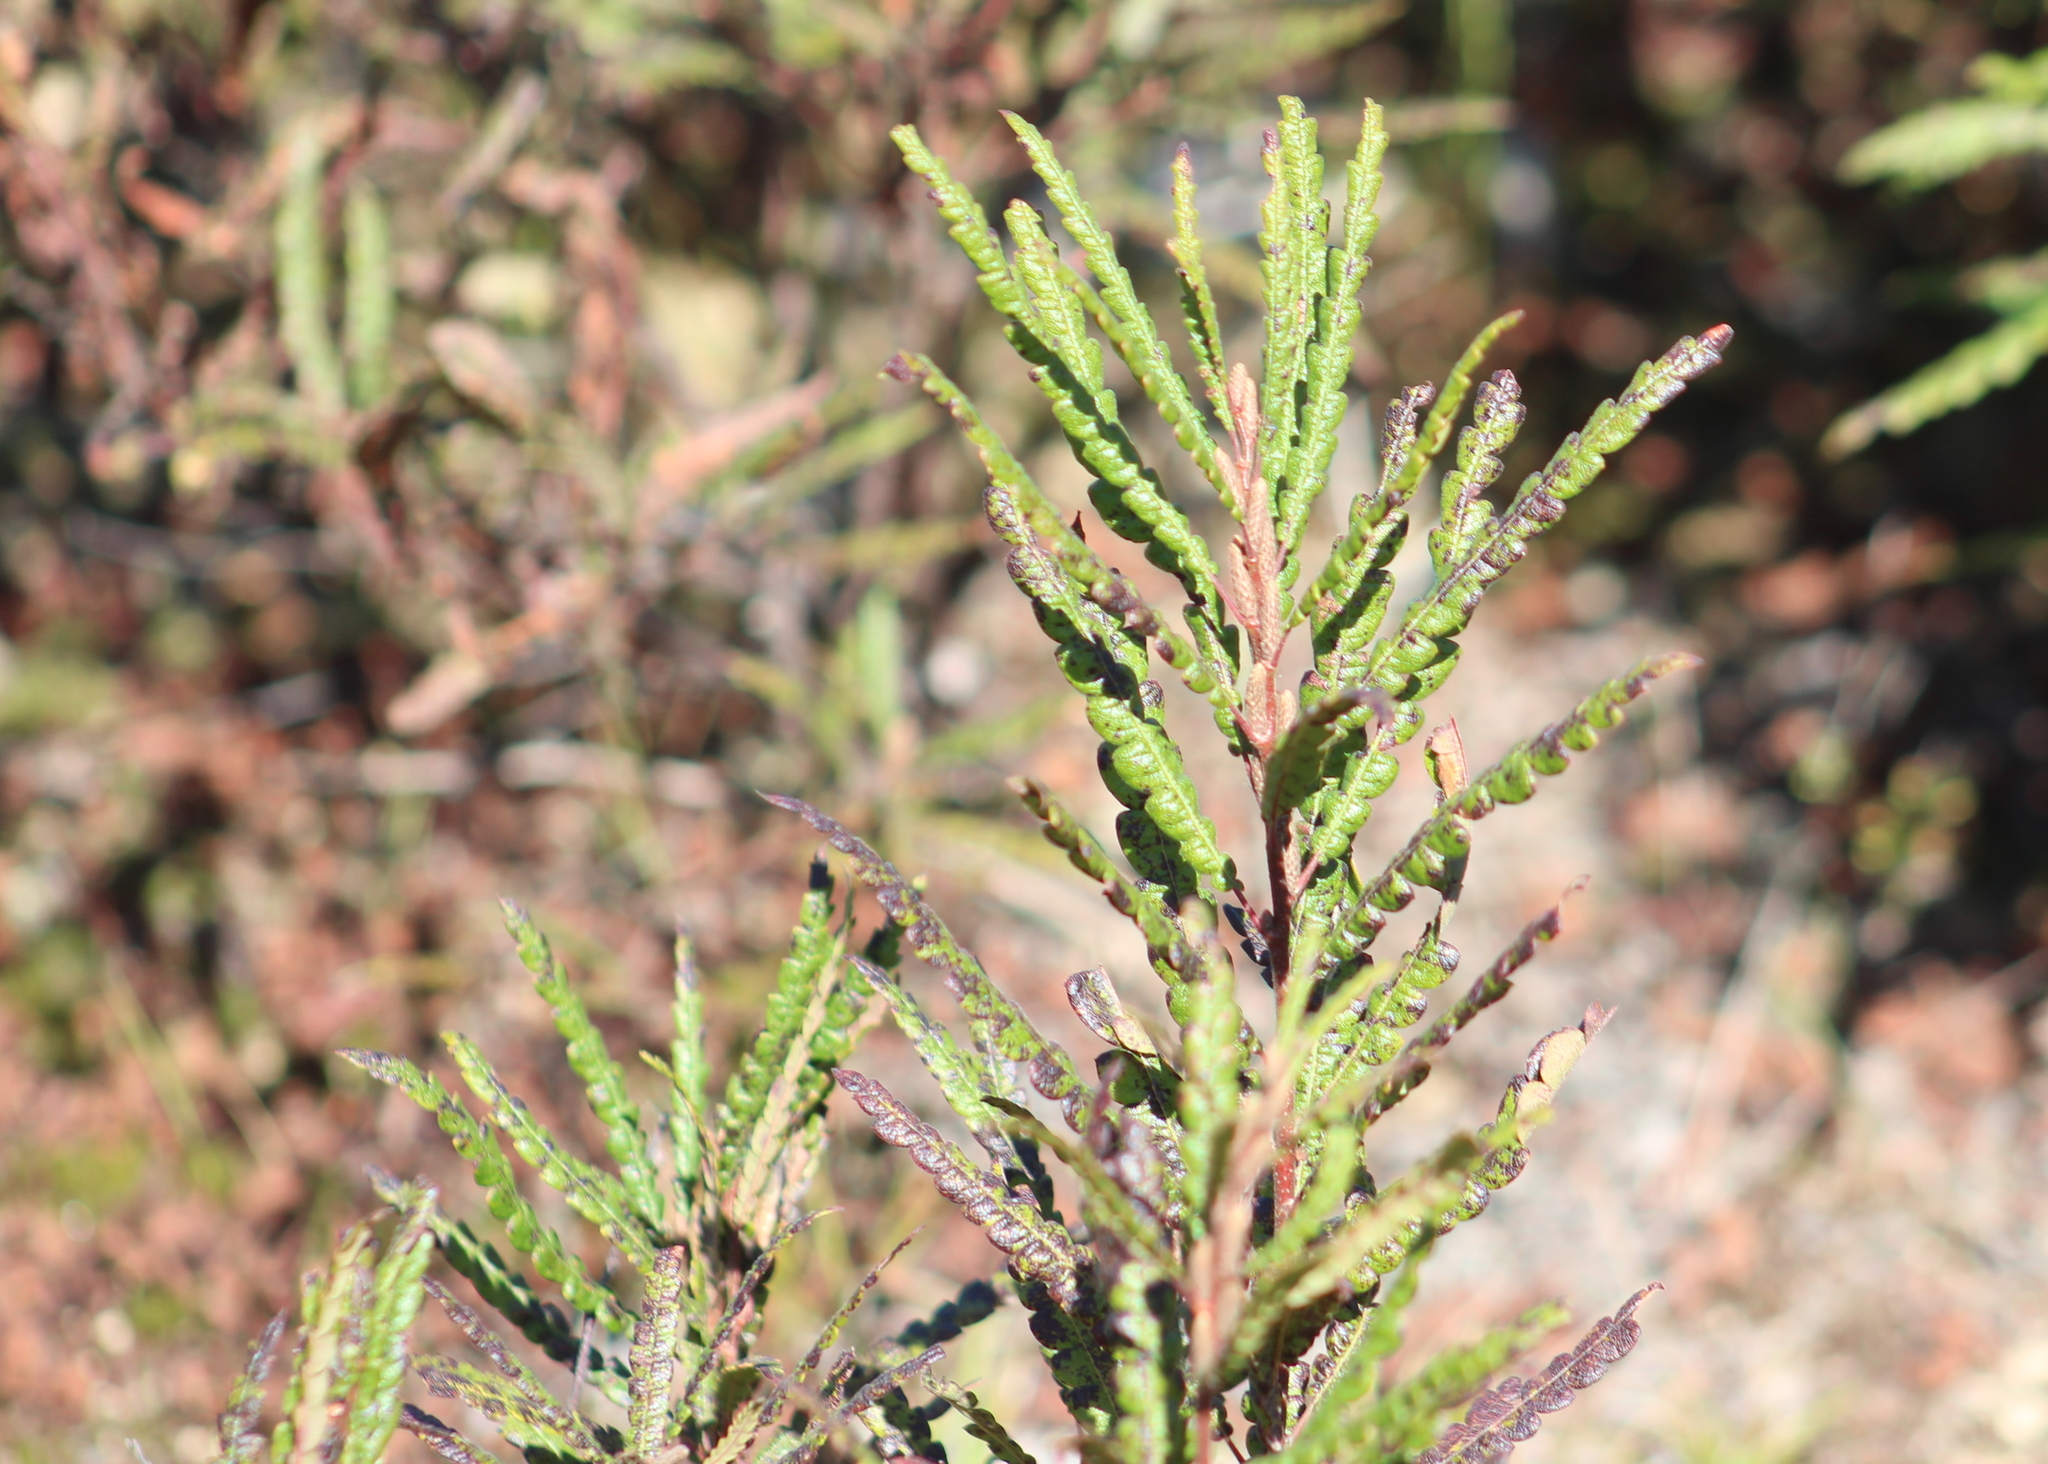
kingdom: Plantae
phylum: Tracheophyta
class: Magnoliopsida
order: Fagales
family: Myricaceae
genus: Comptonia
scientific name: Comptonia peregrina
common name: Sweet-fern
